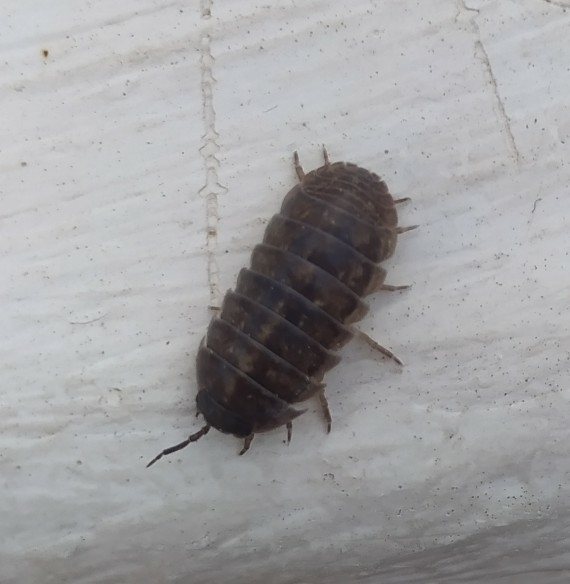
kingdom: Animalia
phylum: Arthropoda
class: Malacostraca
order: Isopoda
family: Armadillidiidae
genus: Armadillidium
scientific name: Armadillidium vulgare
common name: Common pill woodlouse
